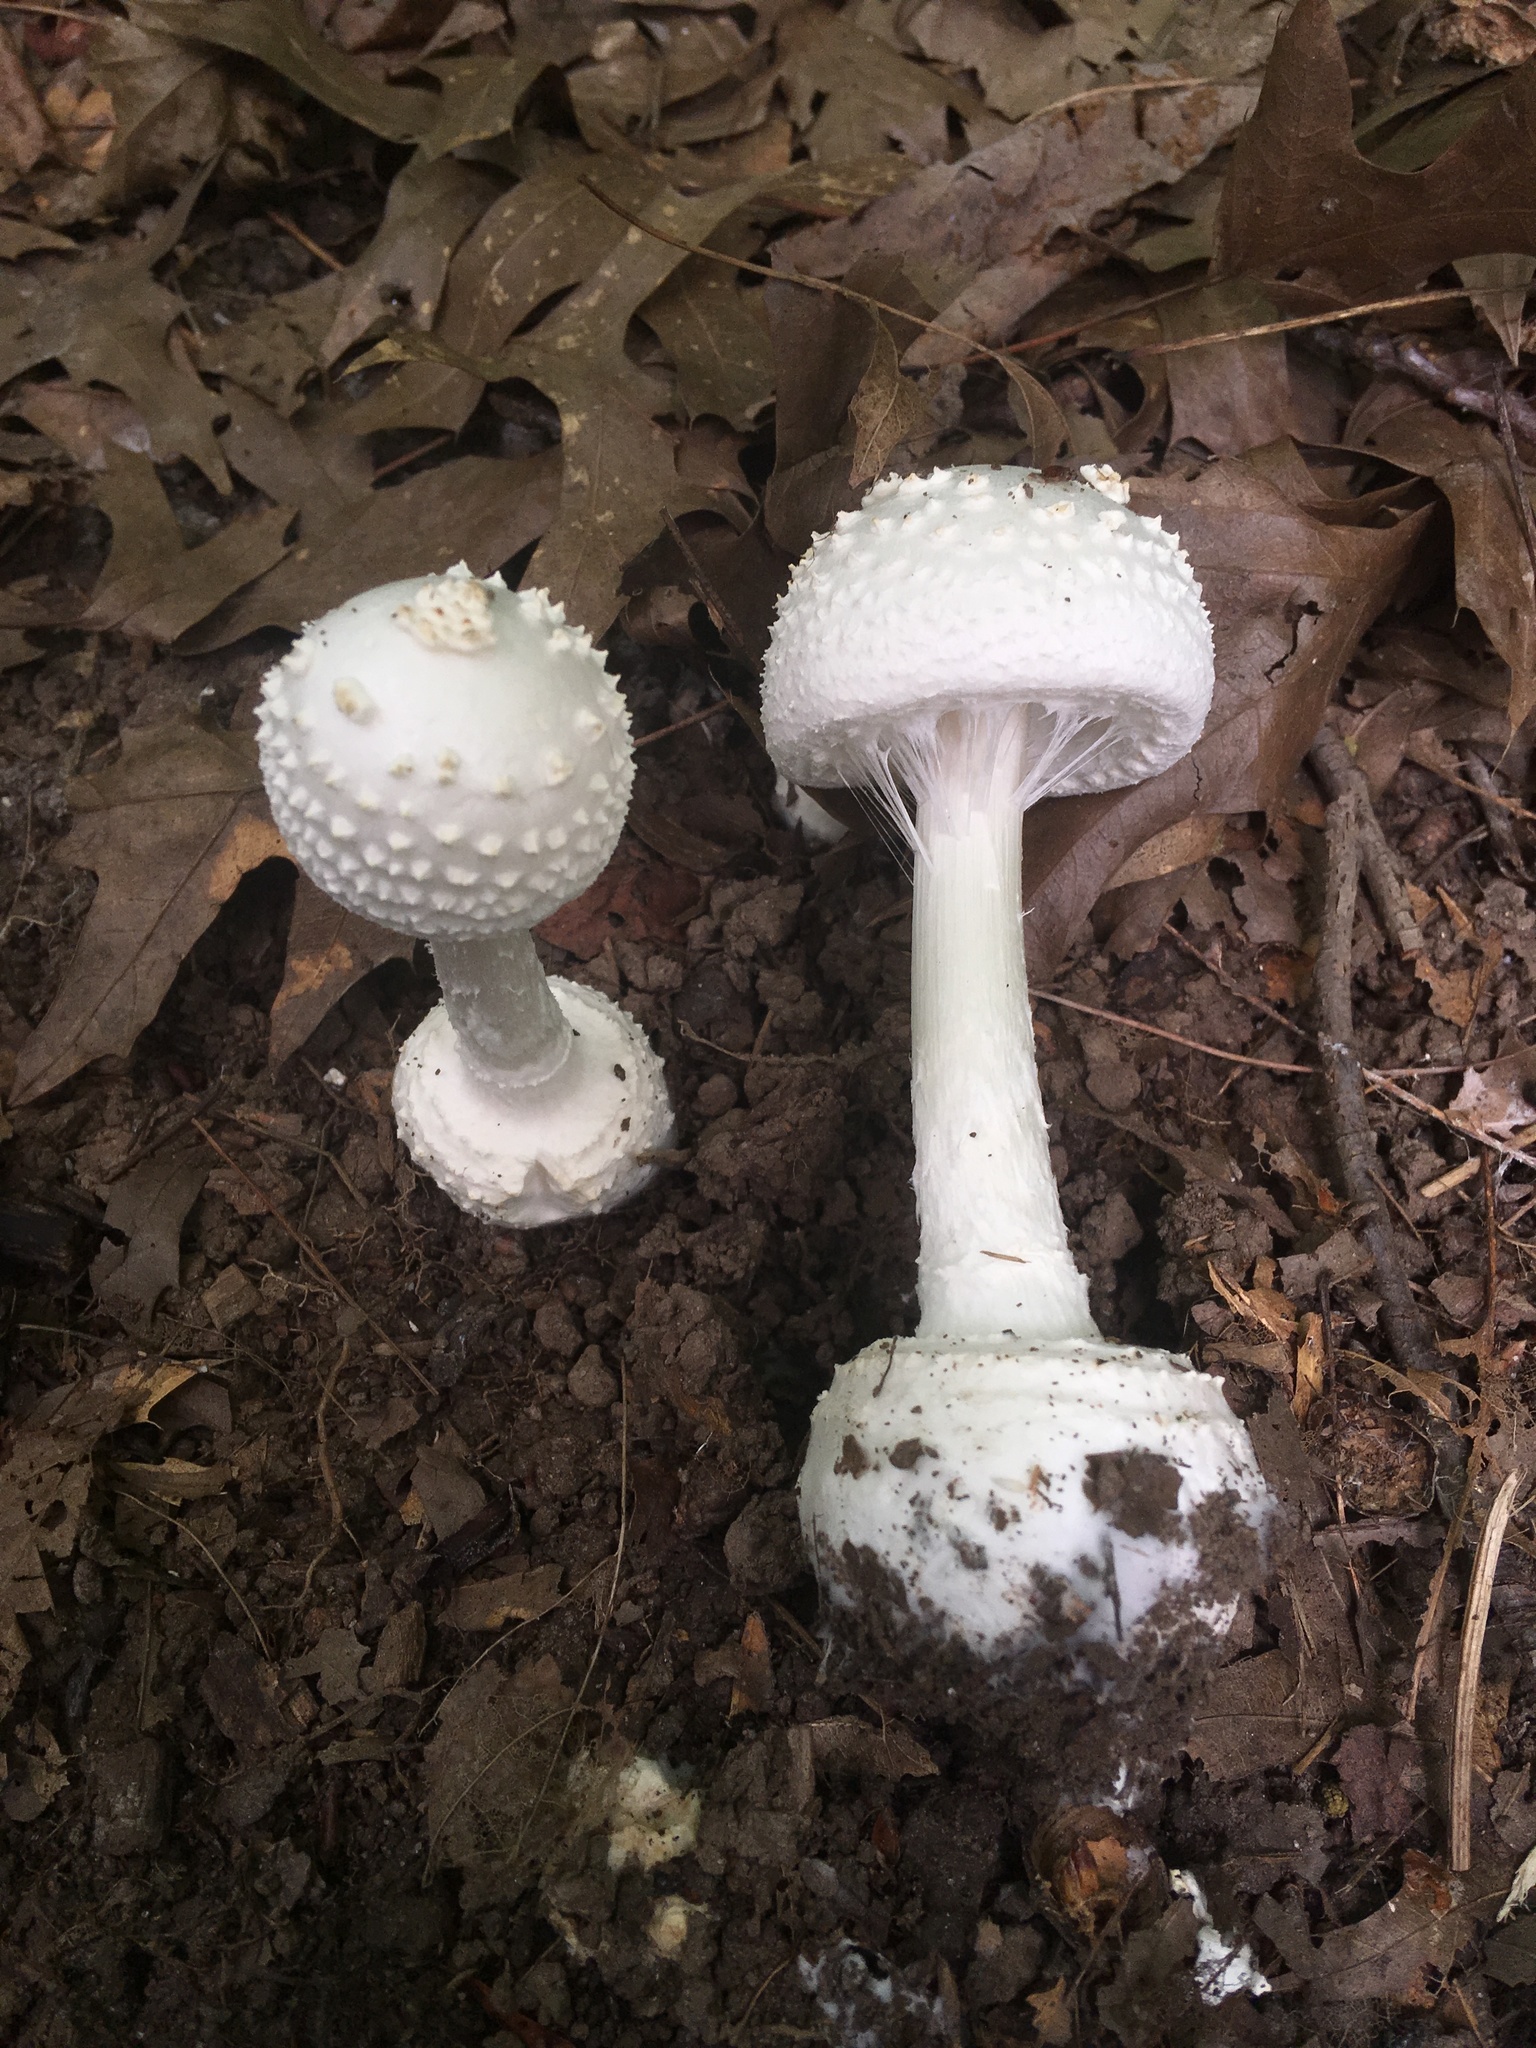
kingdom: Fungi
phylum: Basidiomycota
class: Agaricomycetes
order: Agaricales
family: Amanitaceae
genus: Amanita
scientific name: Amanita abrupta
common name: American abrupt-bulbed lepidella
